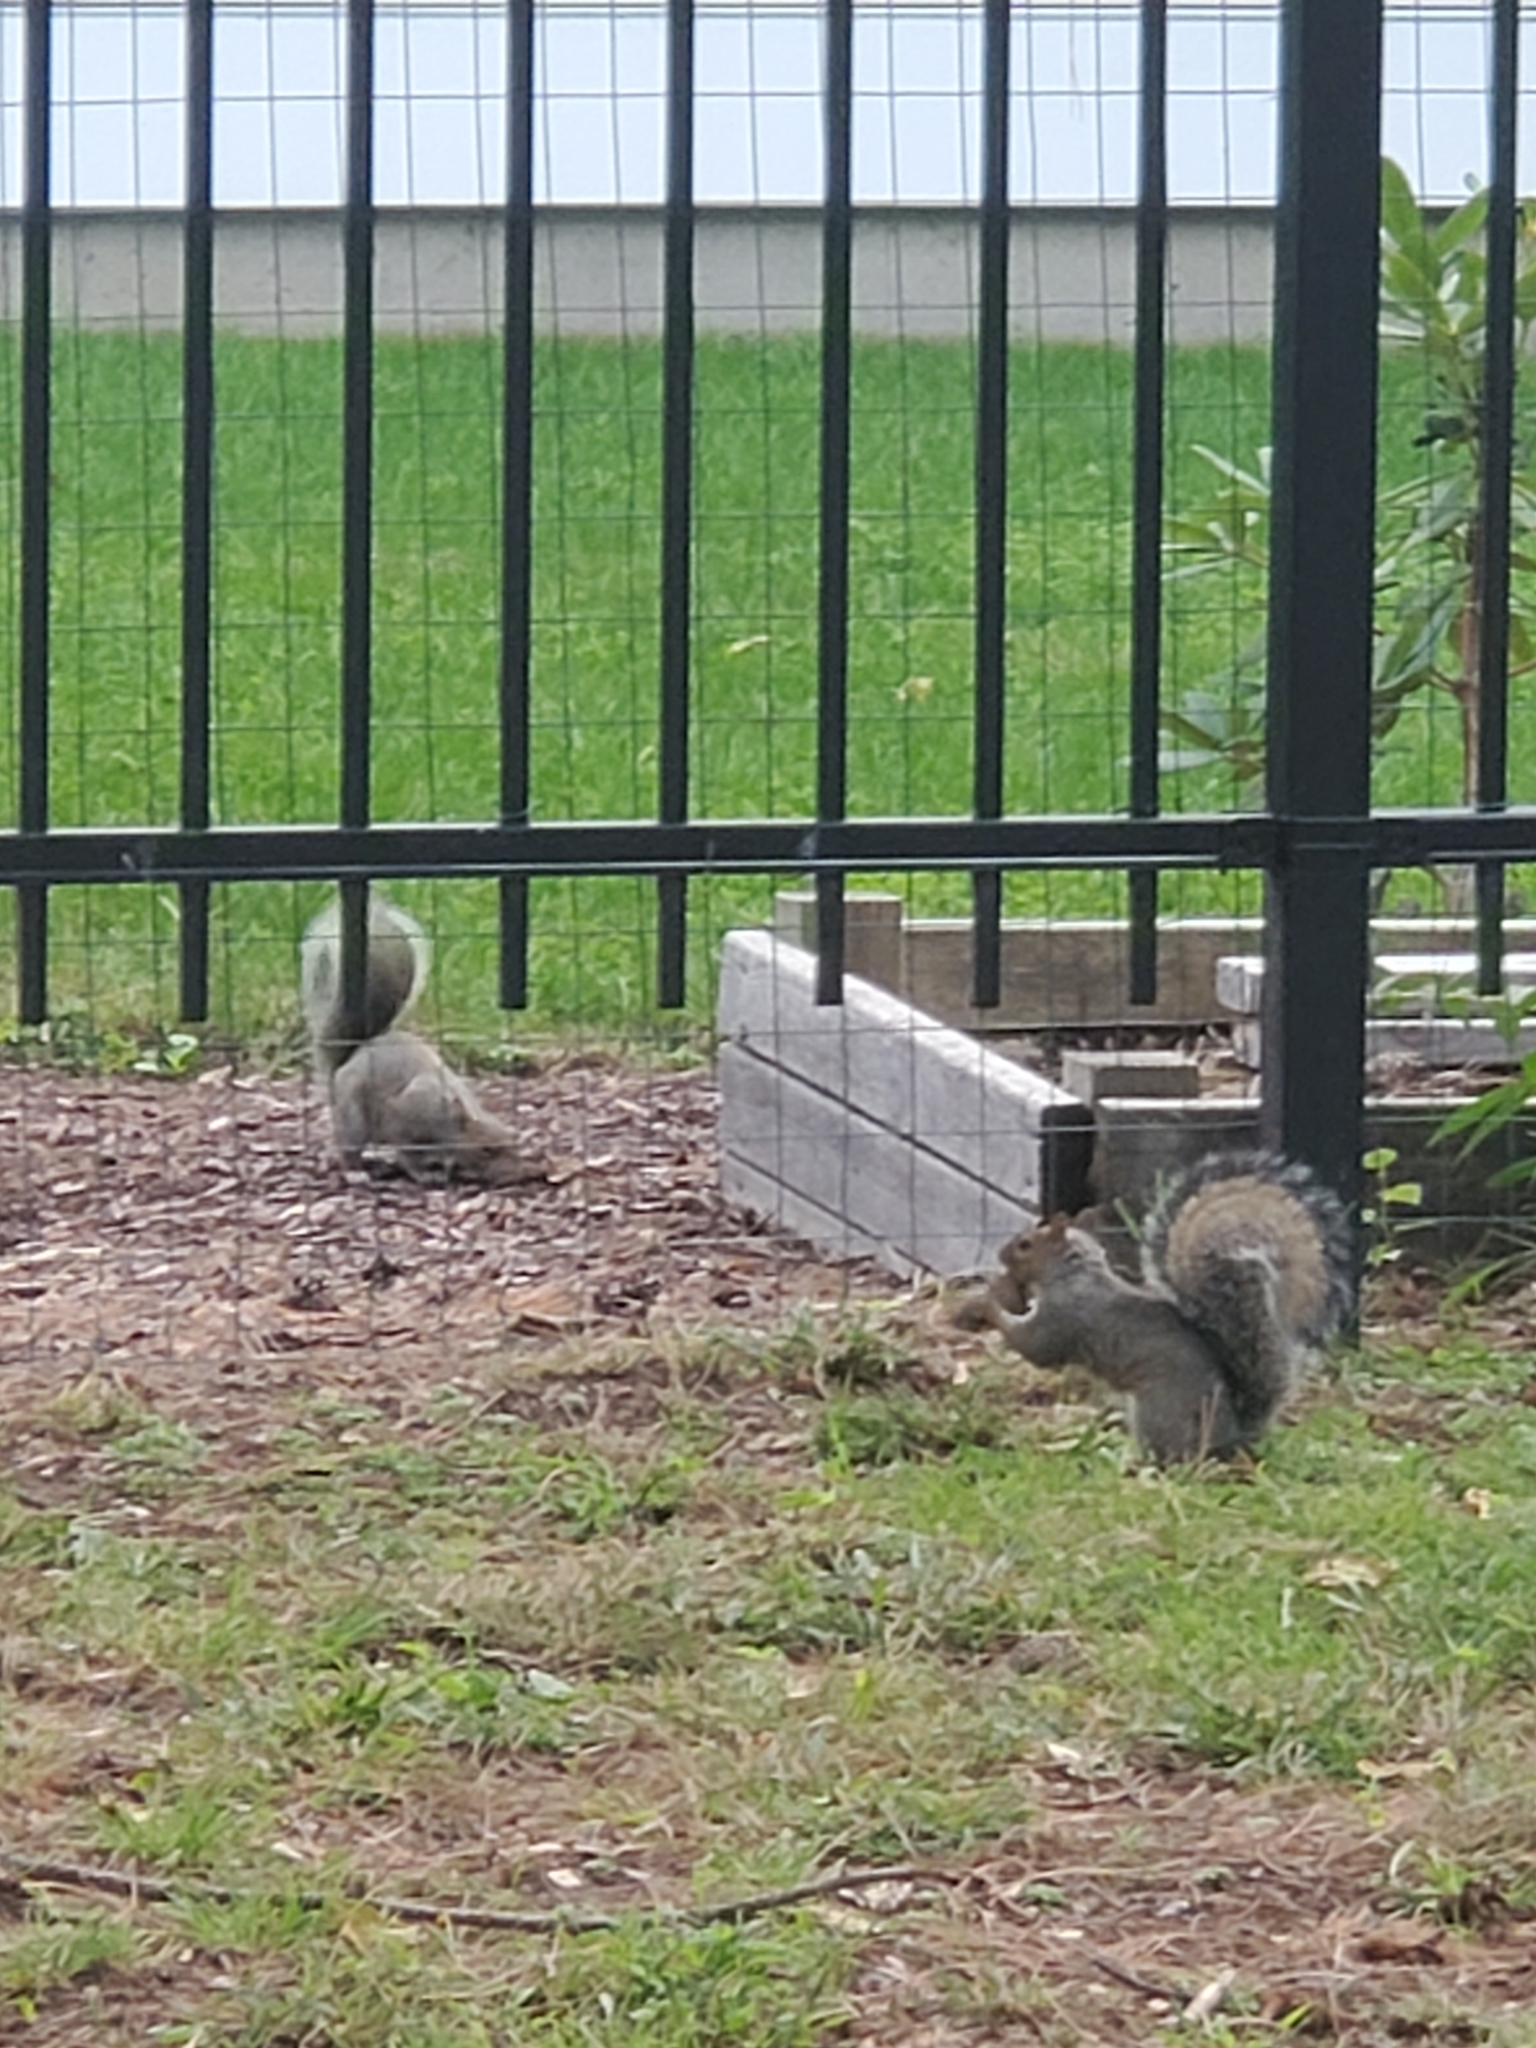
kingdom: Animalia
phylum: Chordata
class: Mammalia
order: Rodentia
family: Sciuridae
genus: Sciurus
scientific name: Sciurus carolinensis
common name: Eastern gray squirrel
